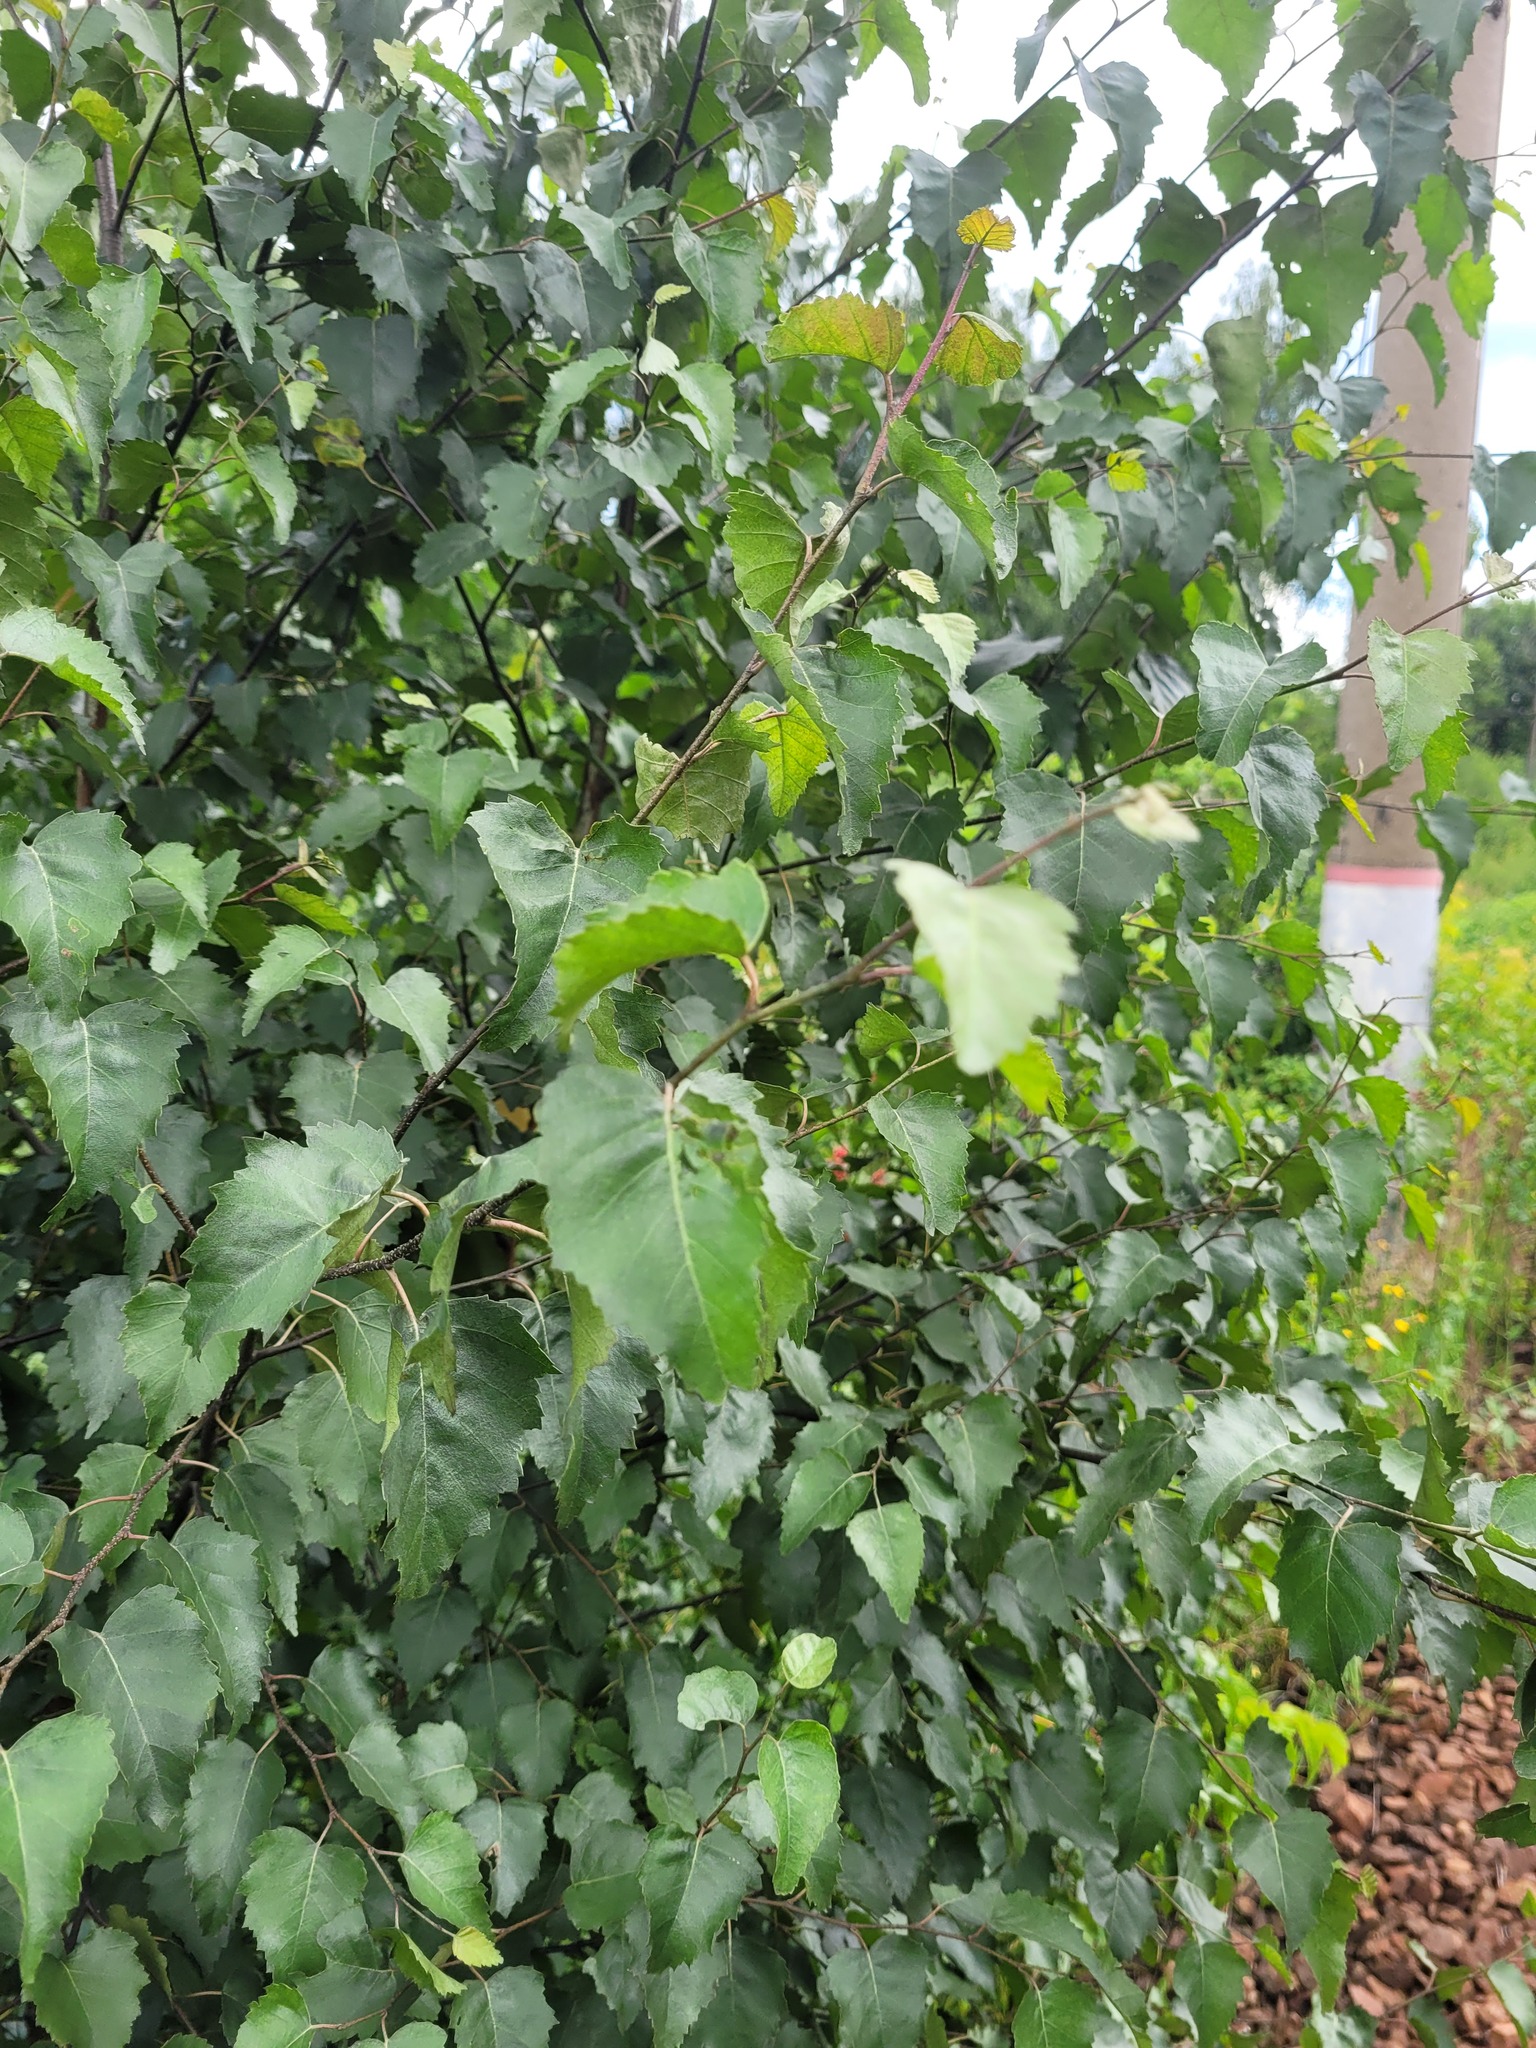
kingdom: Plantae
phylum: Tracheophyta
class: Magnoliopsida
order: Fagales
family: Betulaceae
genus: Betula
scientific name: Betula pendula
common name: Silver birch
